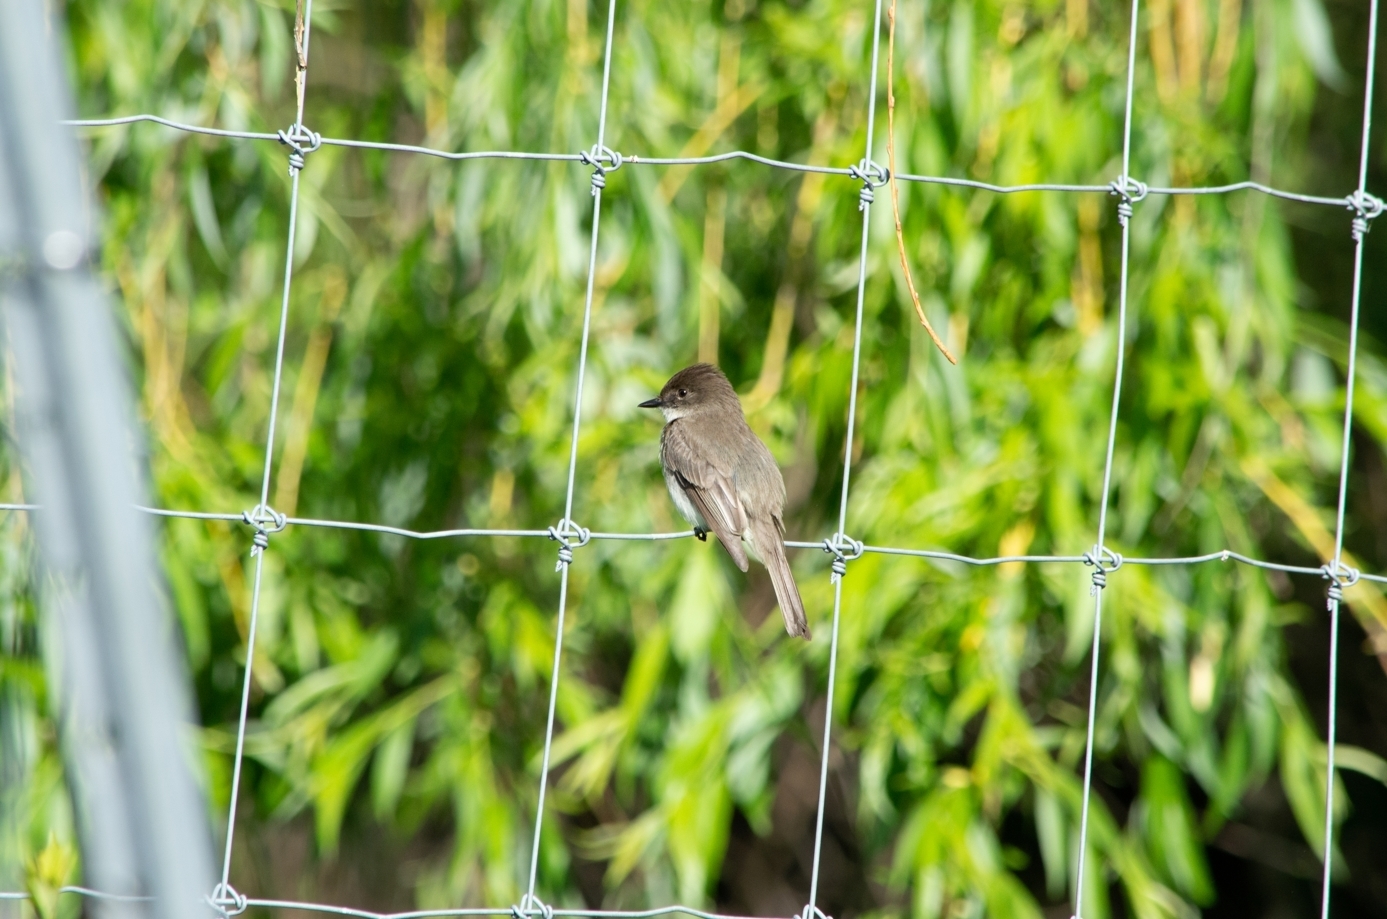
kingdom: Animalia
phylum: Chordata
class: Aves
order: Passeriformes
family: Tyrannidae
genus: Sayornis
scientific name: Sayornis phoebe
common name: Eastern phoebe
